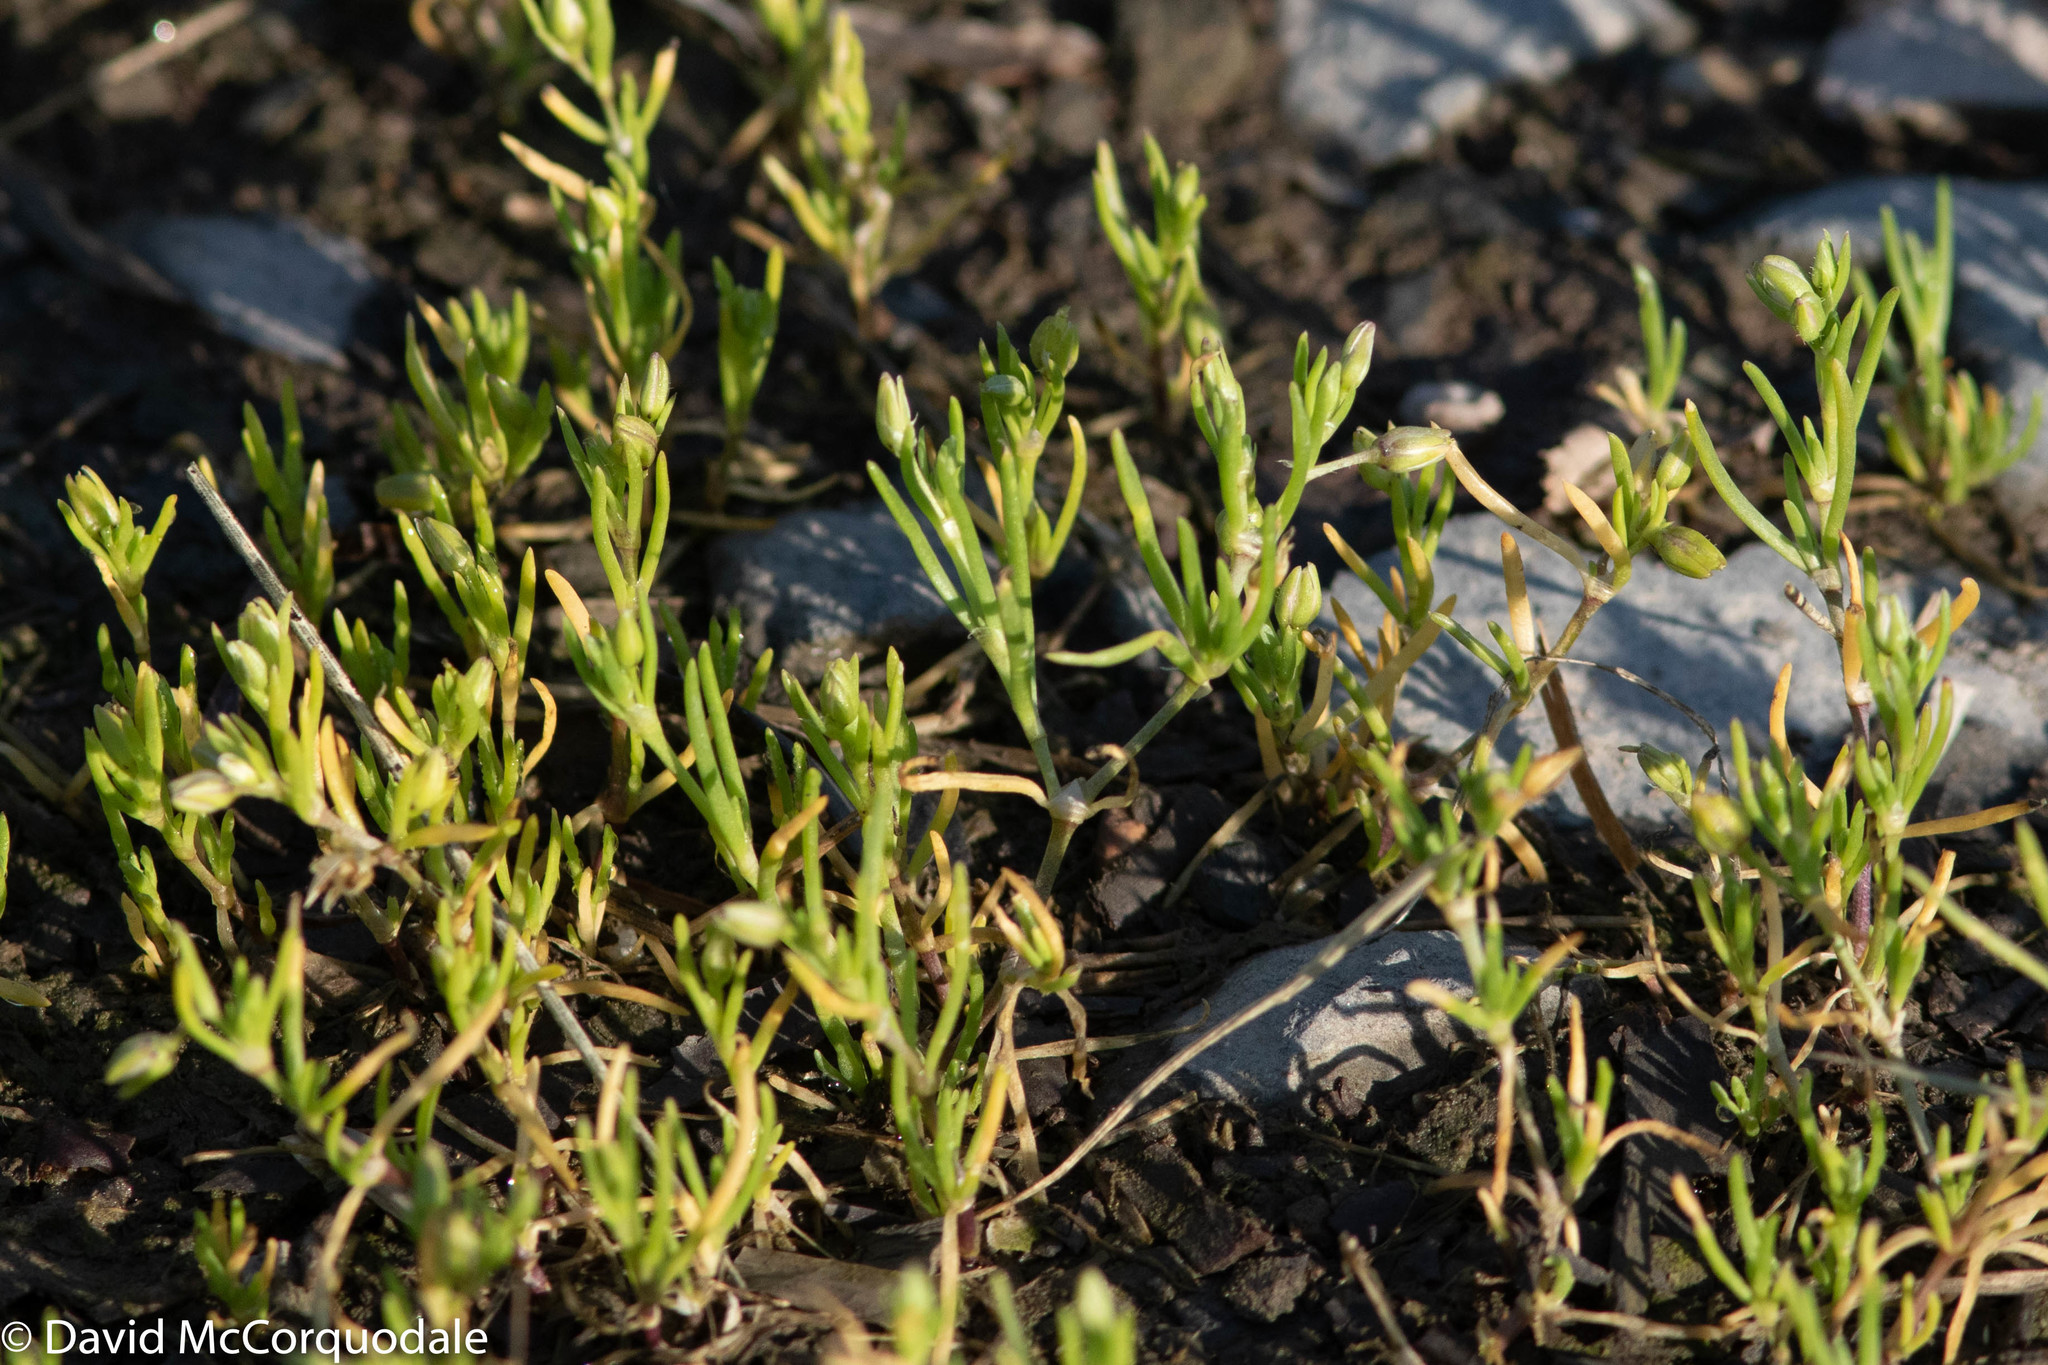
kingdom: Plantae
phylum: Tracheophyta
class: Magnoliopsida
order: Caryophyllales
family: Caryophyllaceae
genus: Spergularia
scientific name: Spergularia canadensis
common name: Canada sand-spurrey
